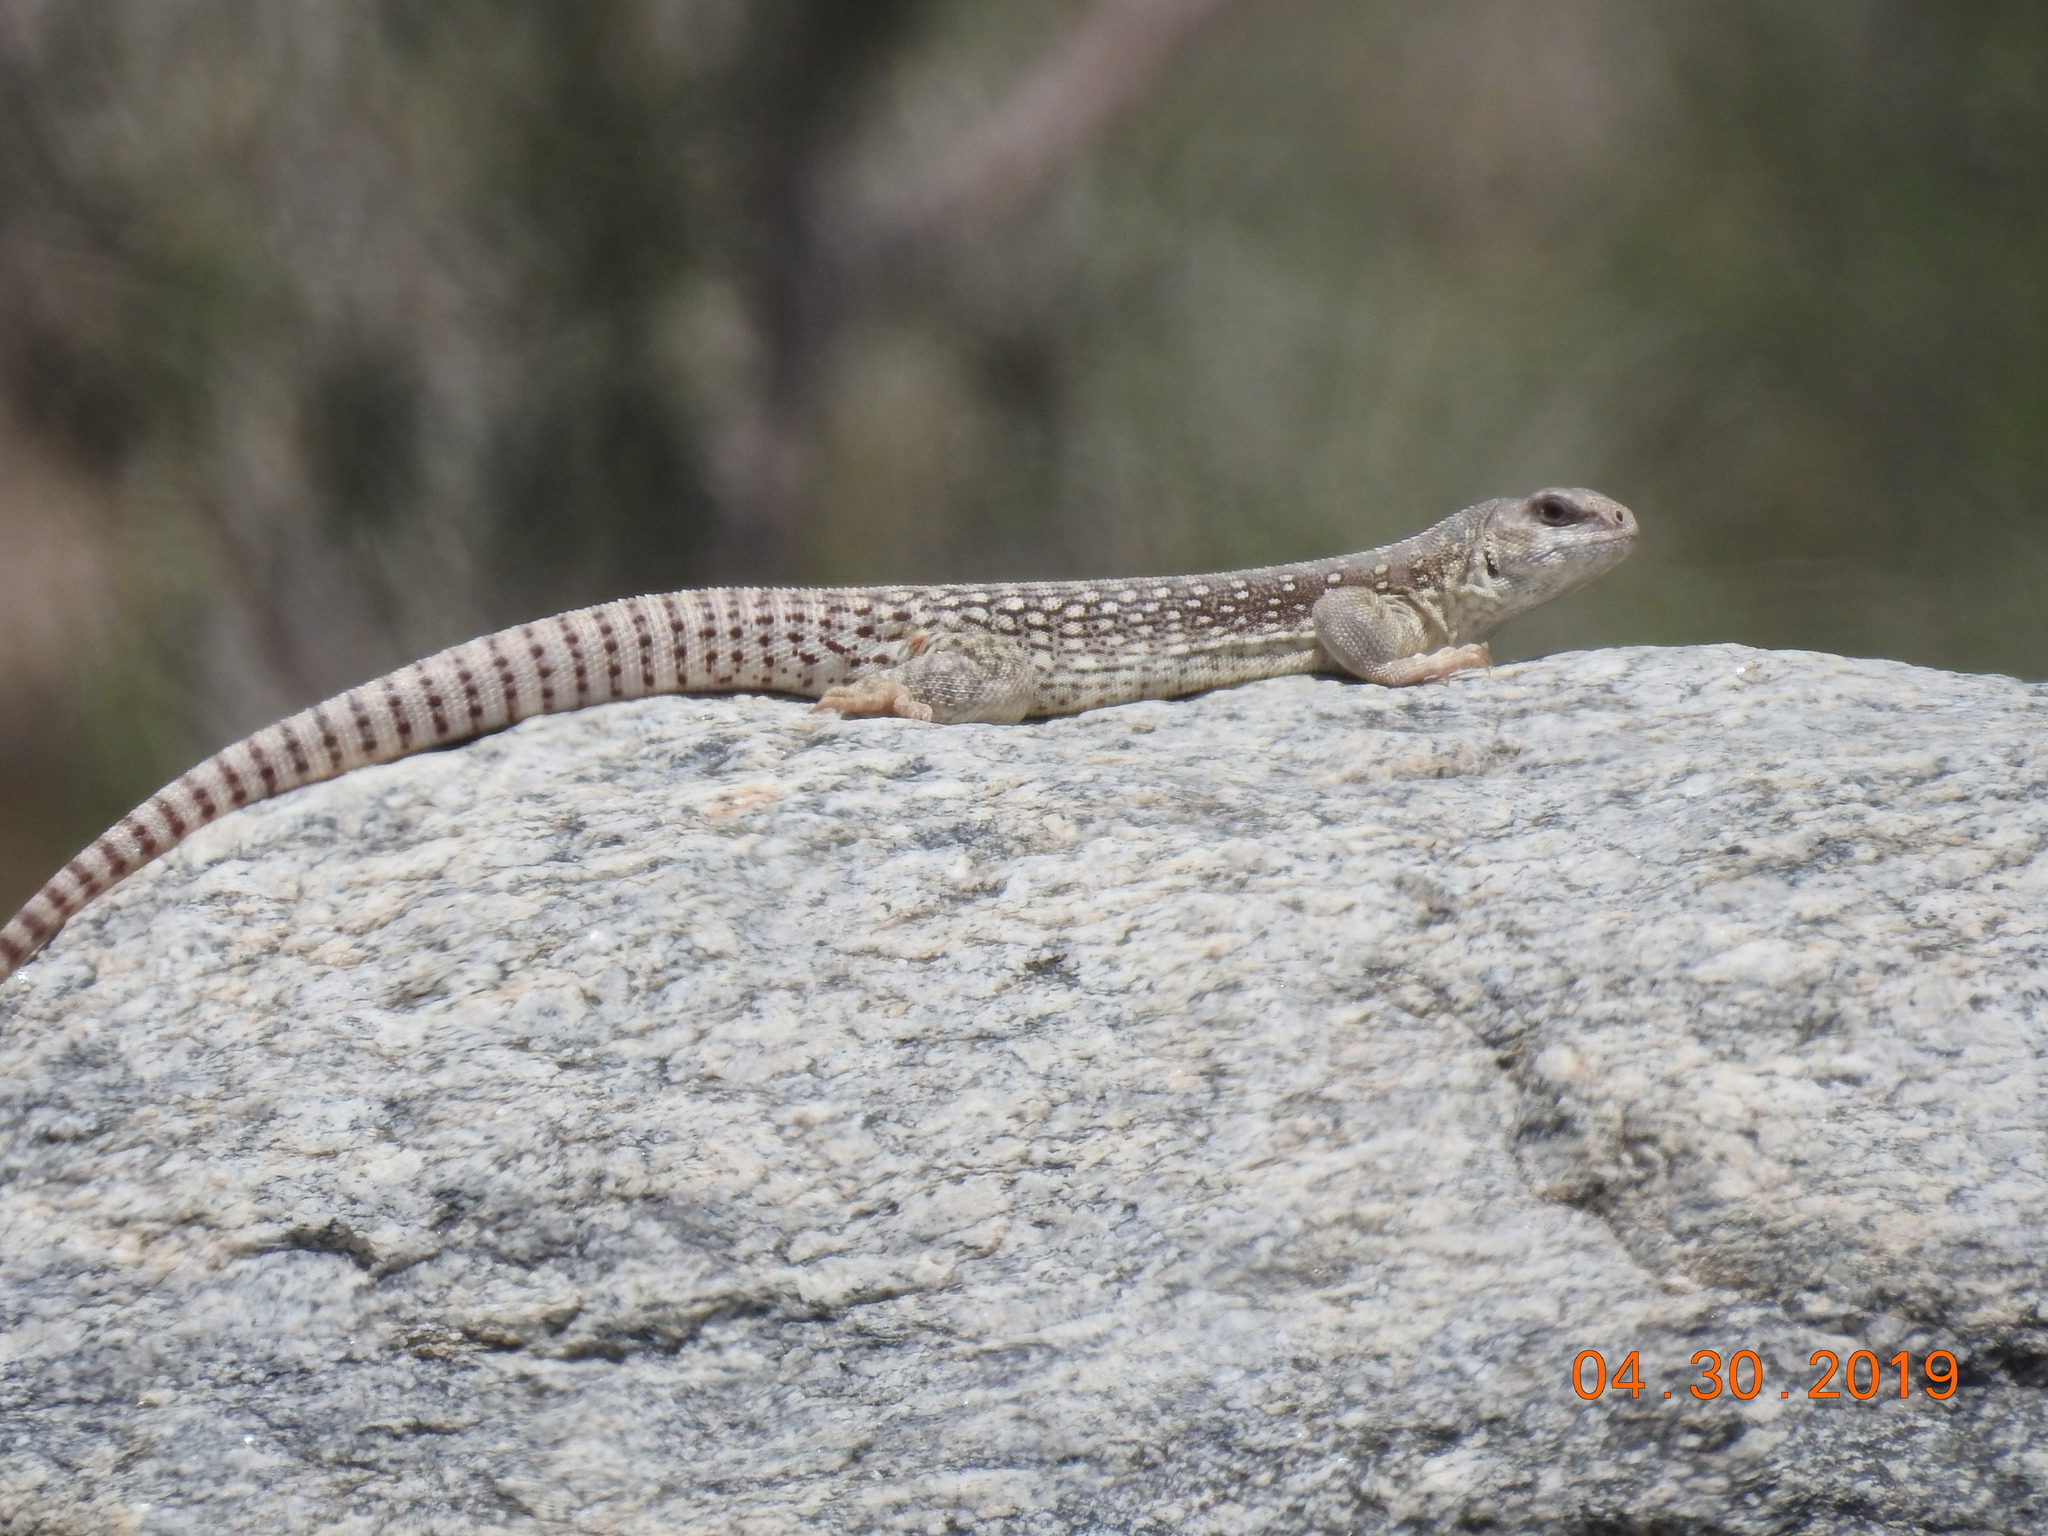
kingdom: Animalia
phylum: Chordata
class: Squamata
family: Iguanidae
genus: Dipsosaurus
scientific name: Dipsosaurus dorsalis
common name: Desert iguana
